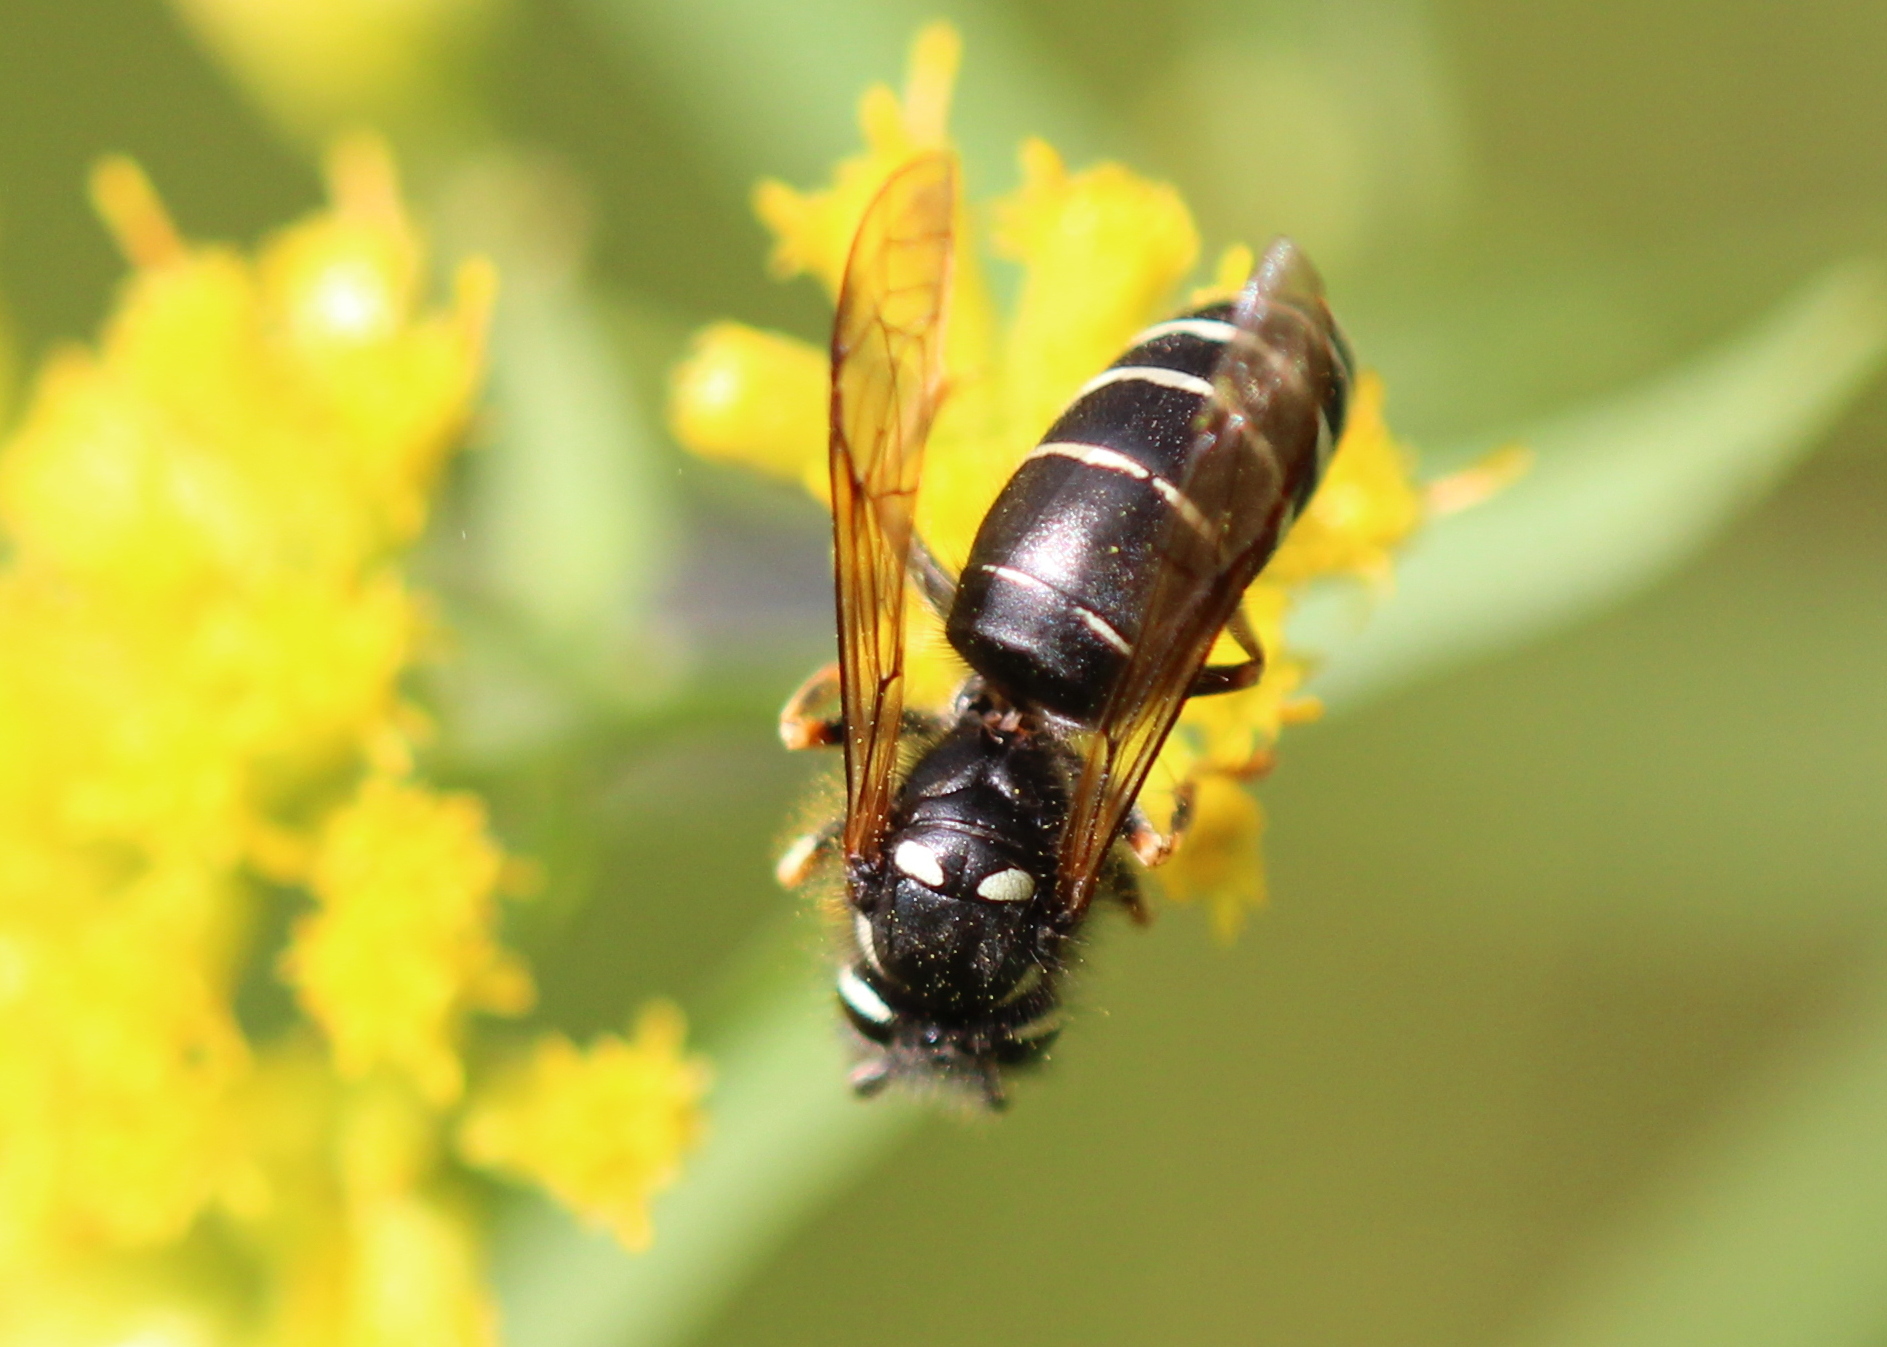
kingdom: Animalia
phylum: Arthropoda
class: Insecta
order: Hymenoptera
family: Vespidae
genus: Vespula
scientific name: Vespula consobrina
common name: Blackjacket
